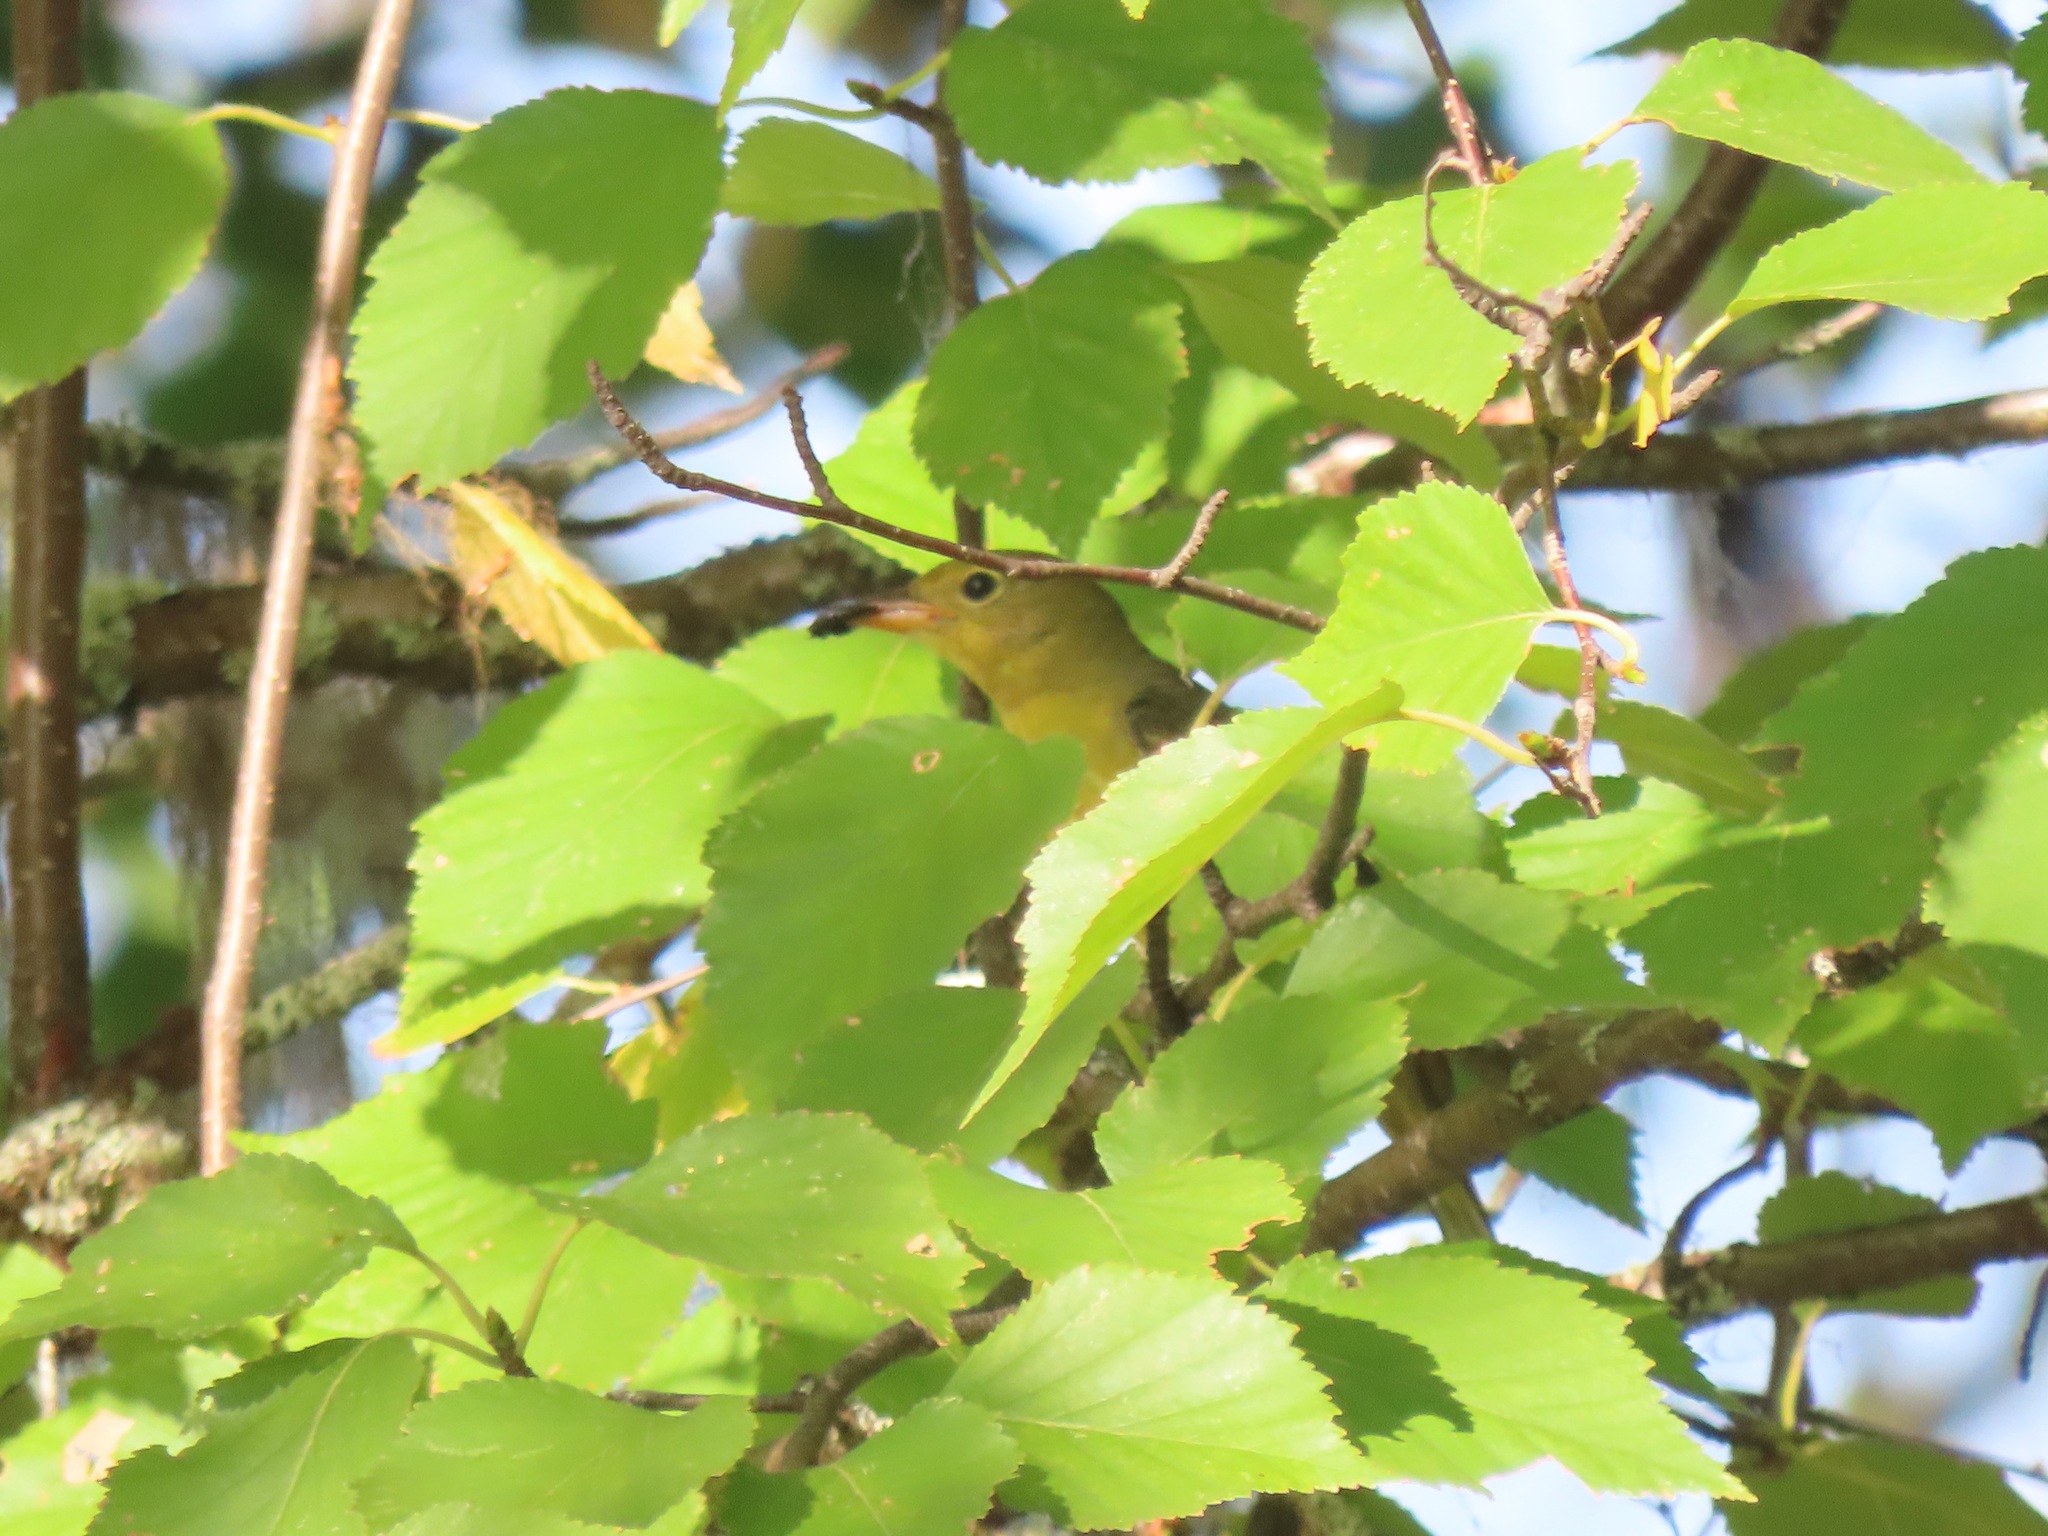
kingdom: Animalia
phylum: Chordata
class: Aves
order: Passeriformes
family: Cardinalidae
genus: Piranga
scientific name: Piranga ludoviciana
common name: Western tanager
